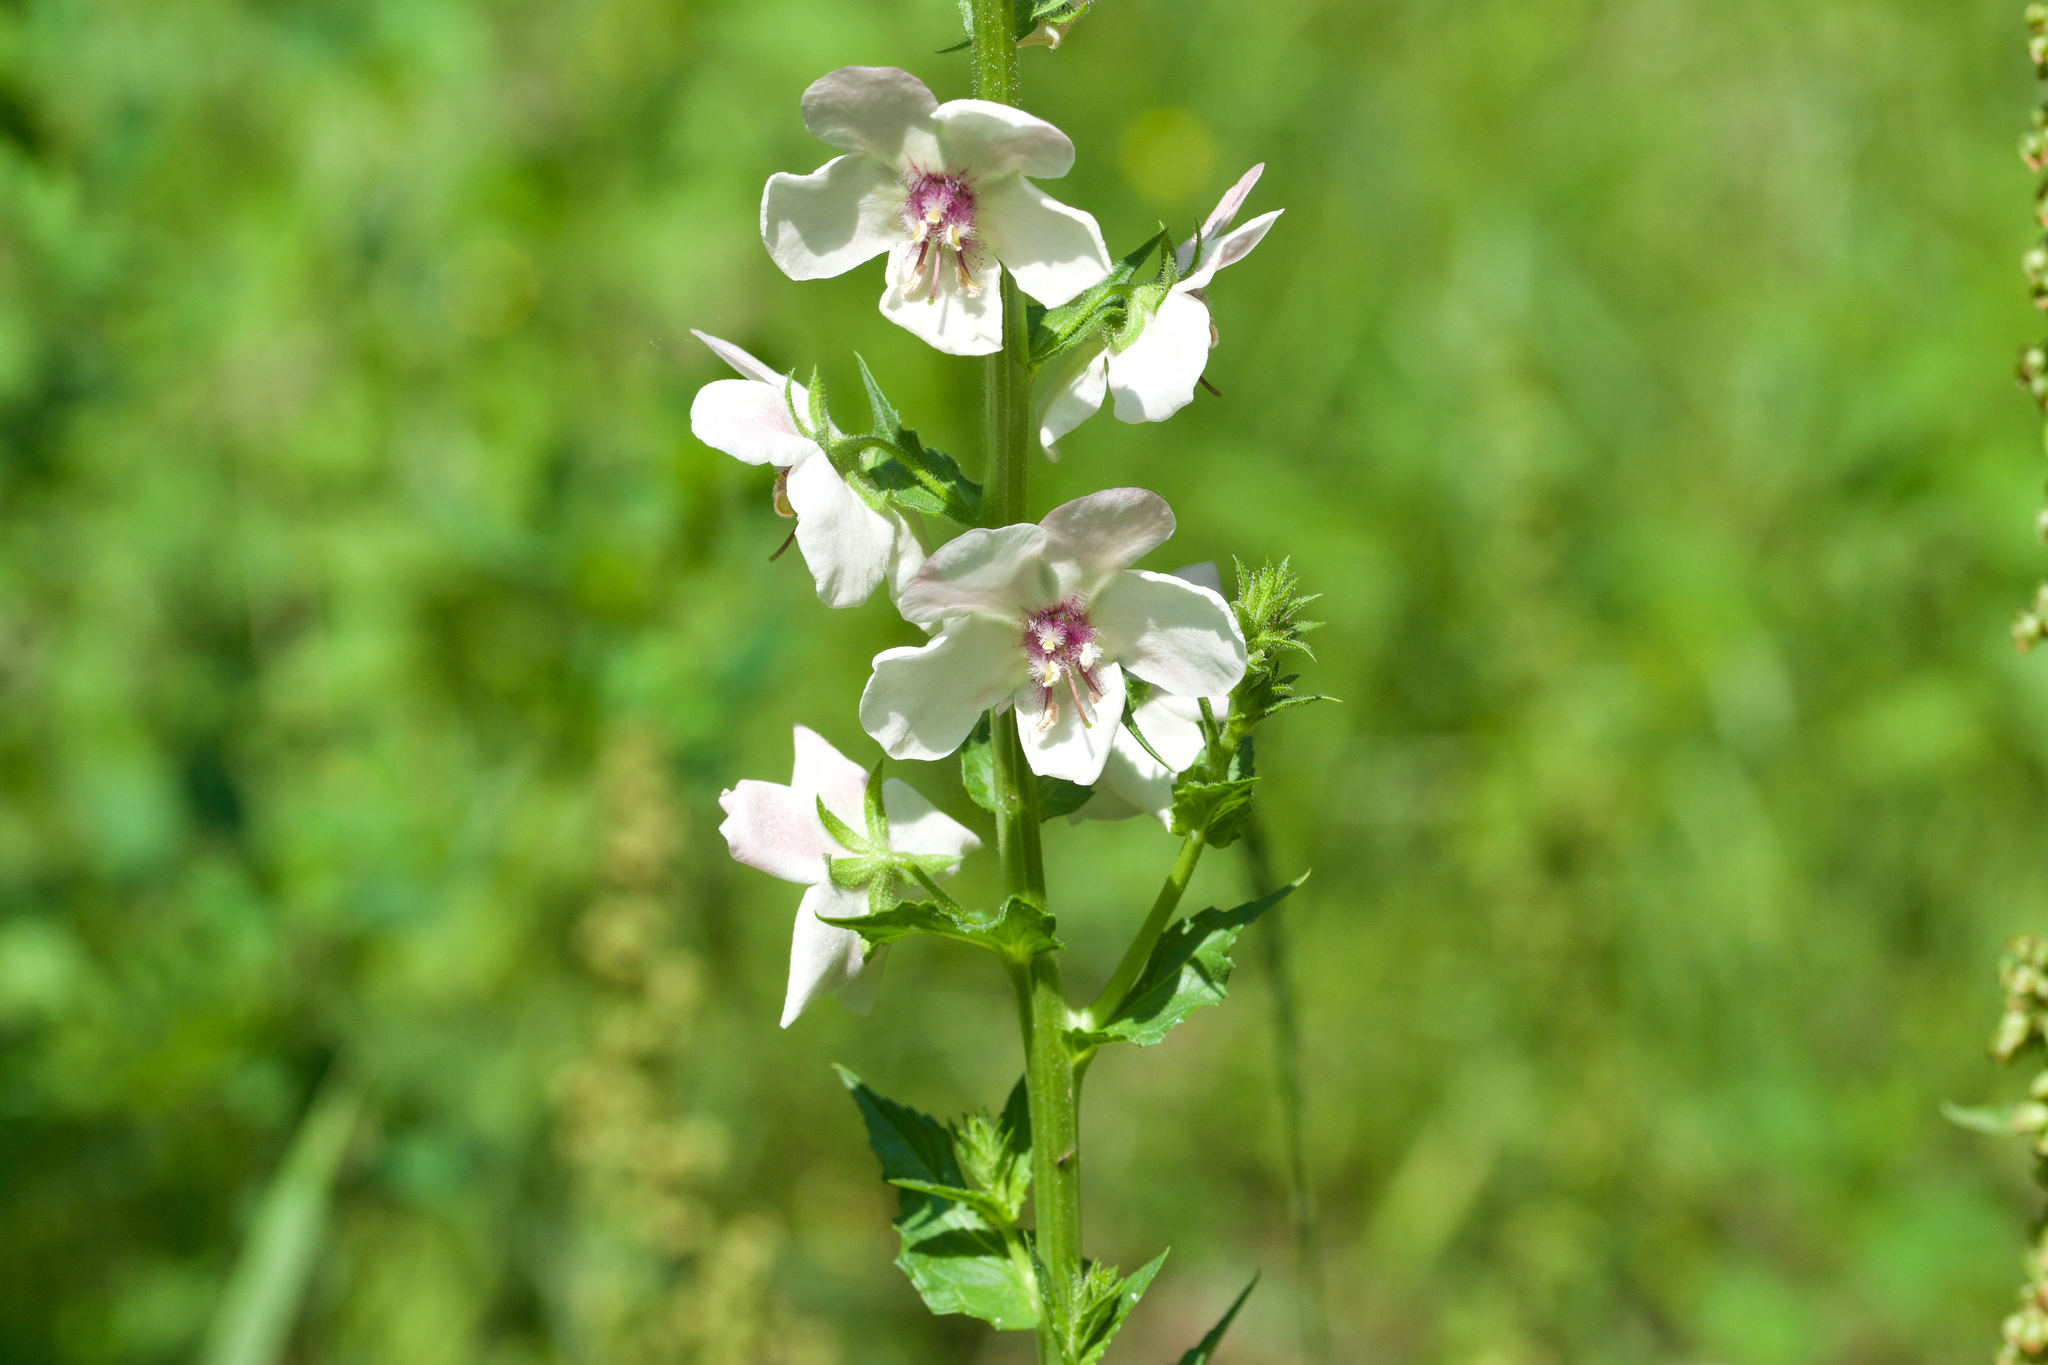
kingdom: Plantae
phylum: Tracheophyta
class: Magnoliopsida
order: Lamiales
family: Scrophulariaceae
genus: Verbascum
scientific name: Verbascum blattaria
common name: Moth mullein
